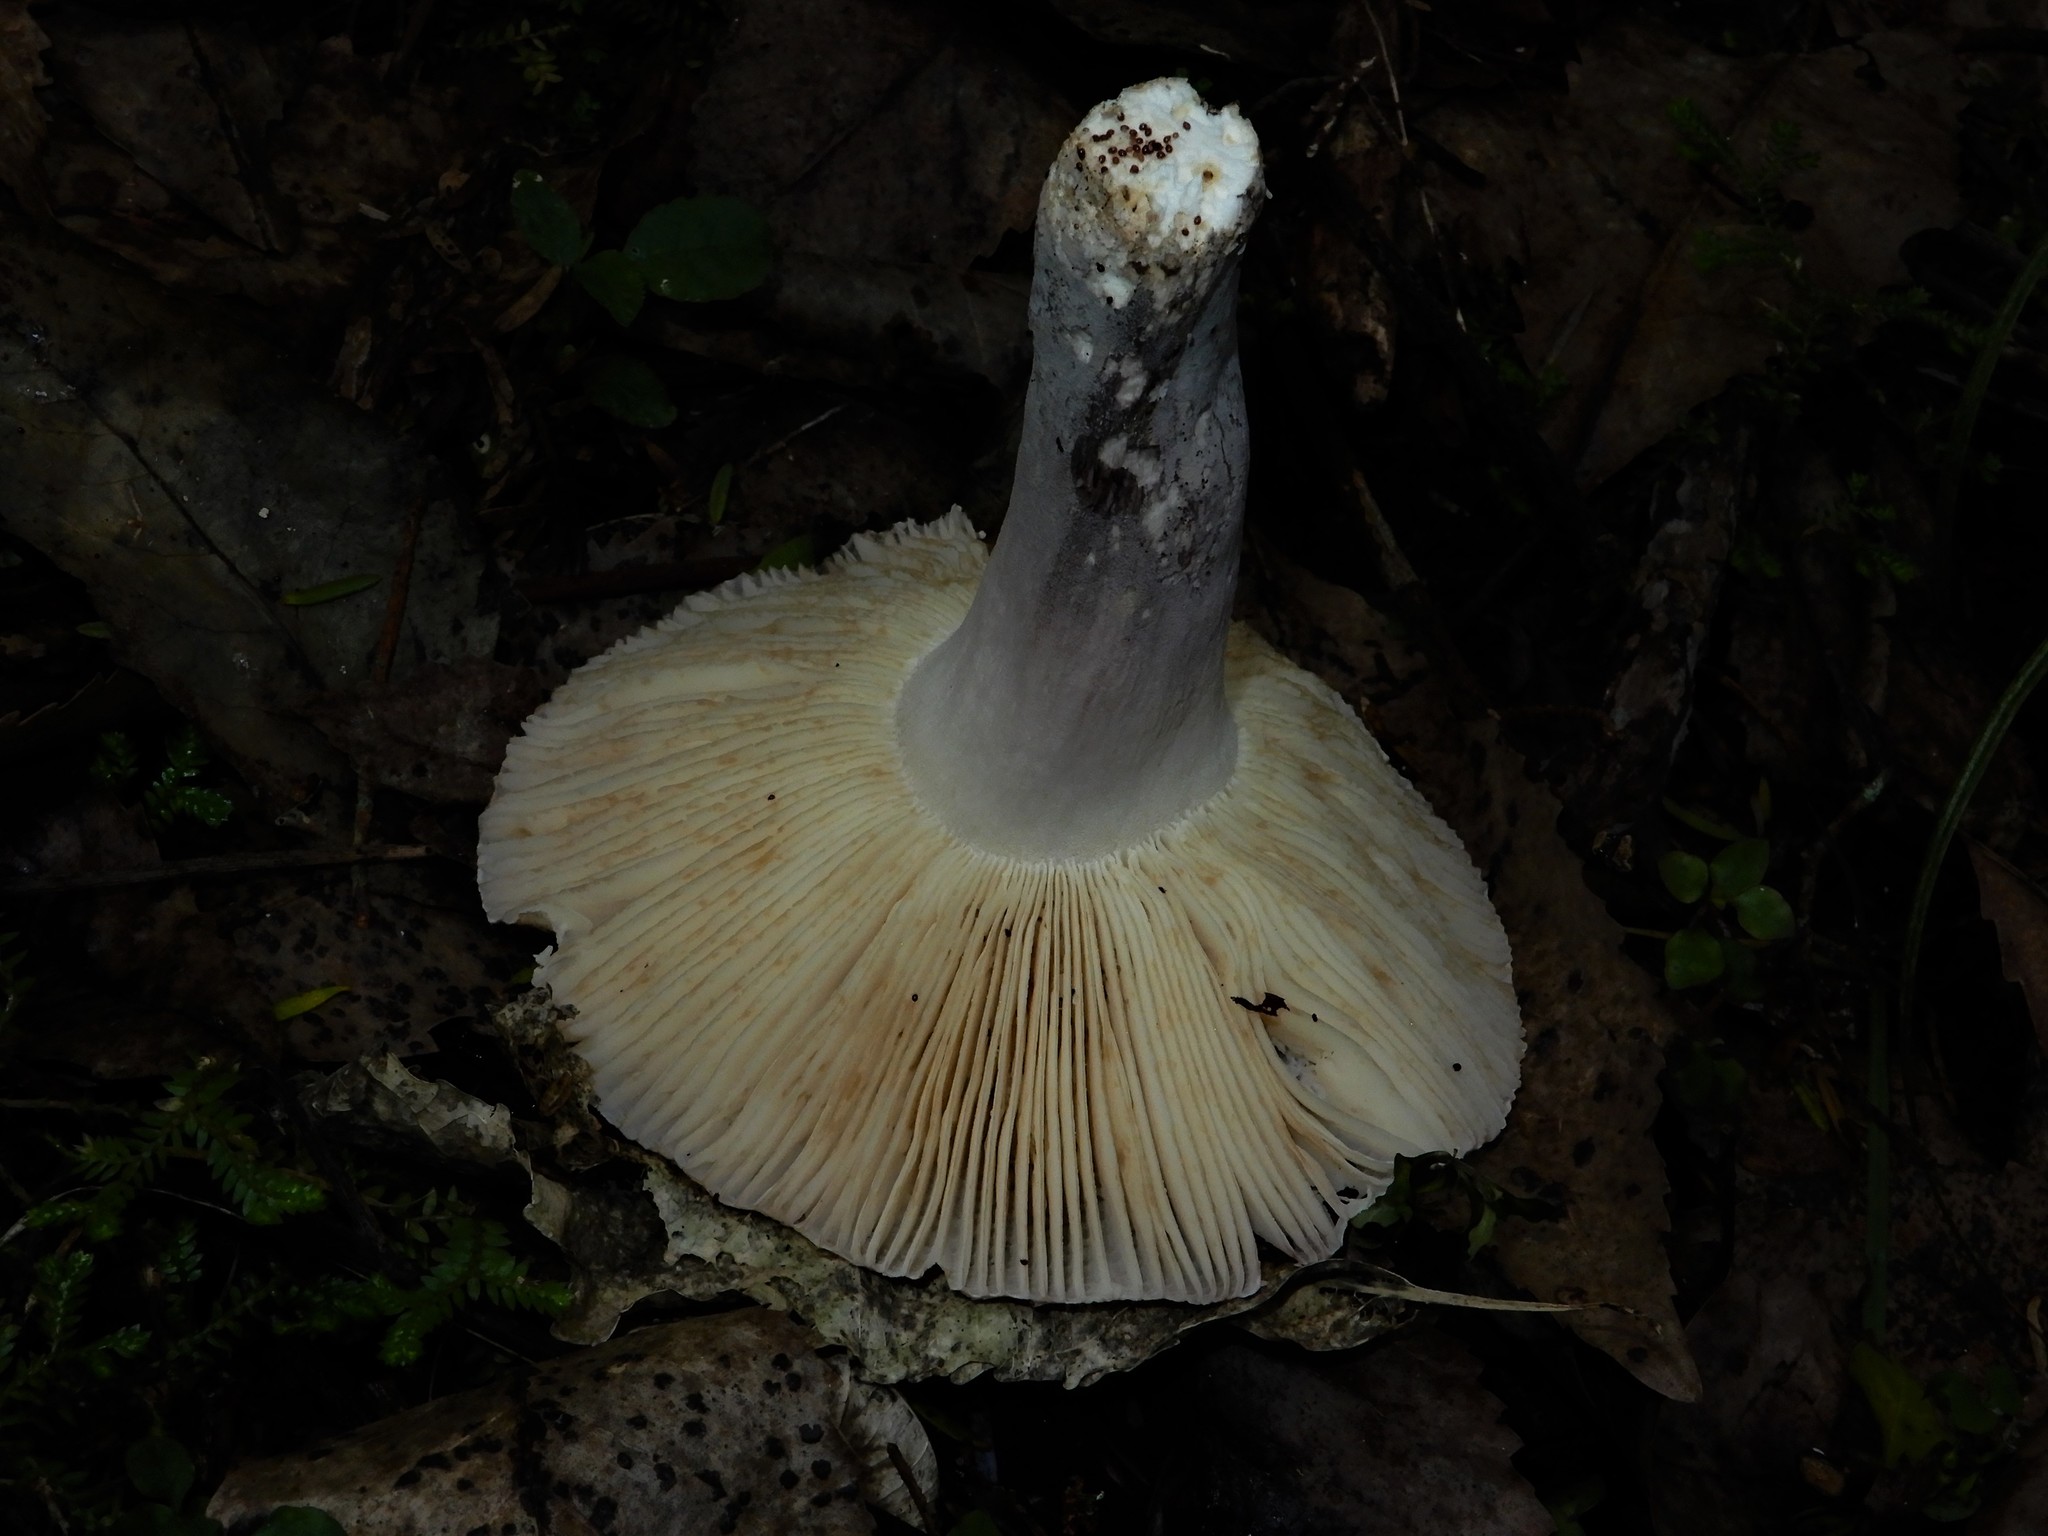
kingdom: Fungi
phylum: Basidiomycota
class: Agaricomycetes
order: Russulales
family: Russulaceae
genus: Russula
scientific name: Russula griseoviridis
